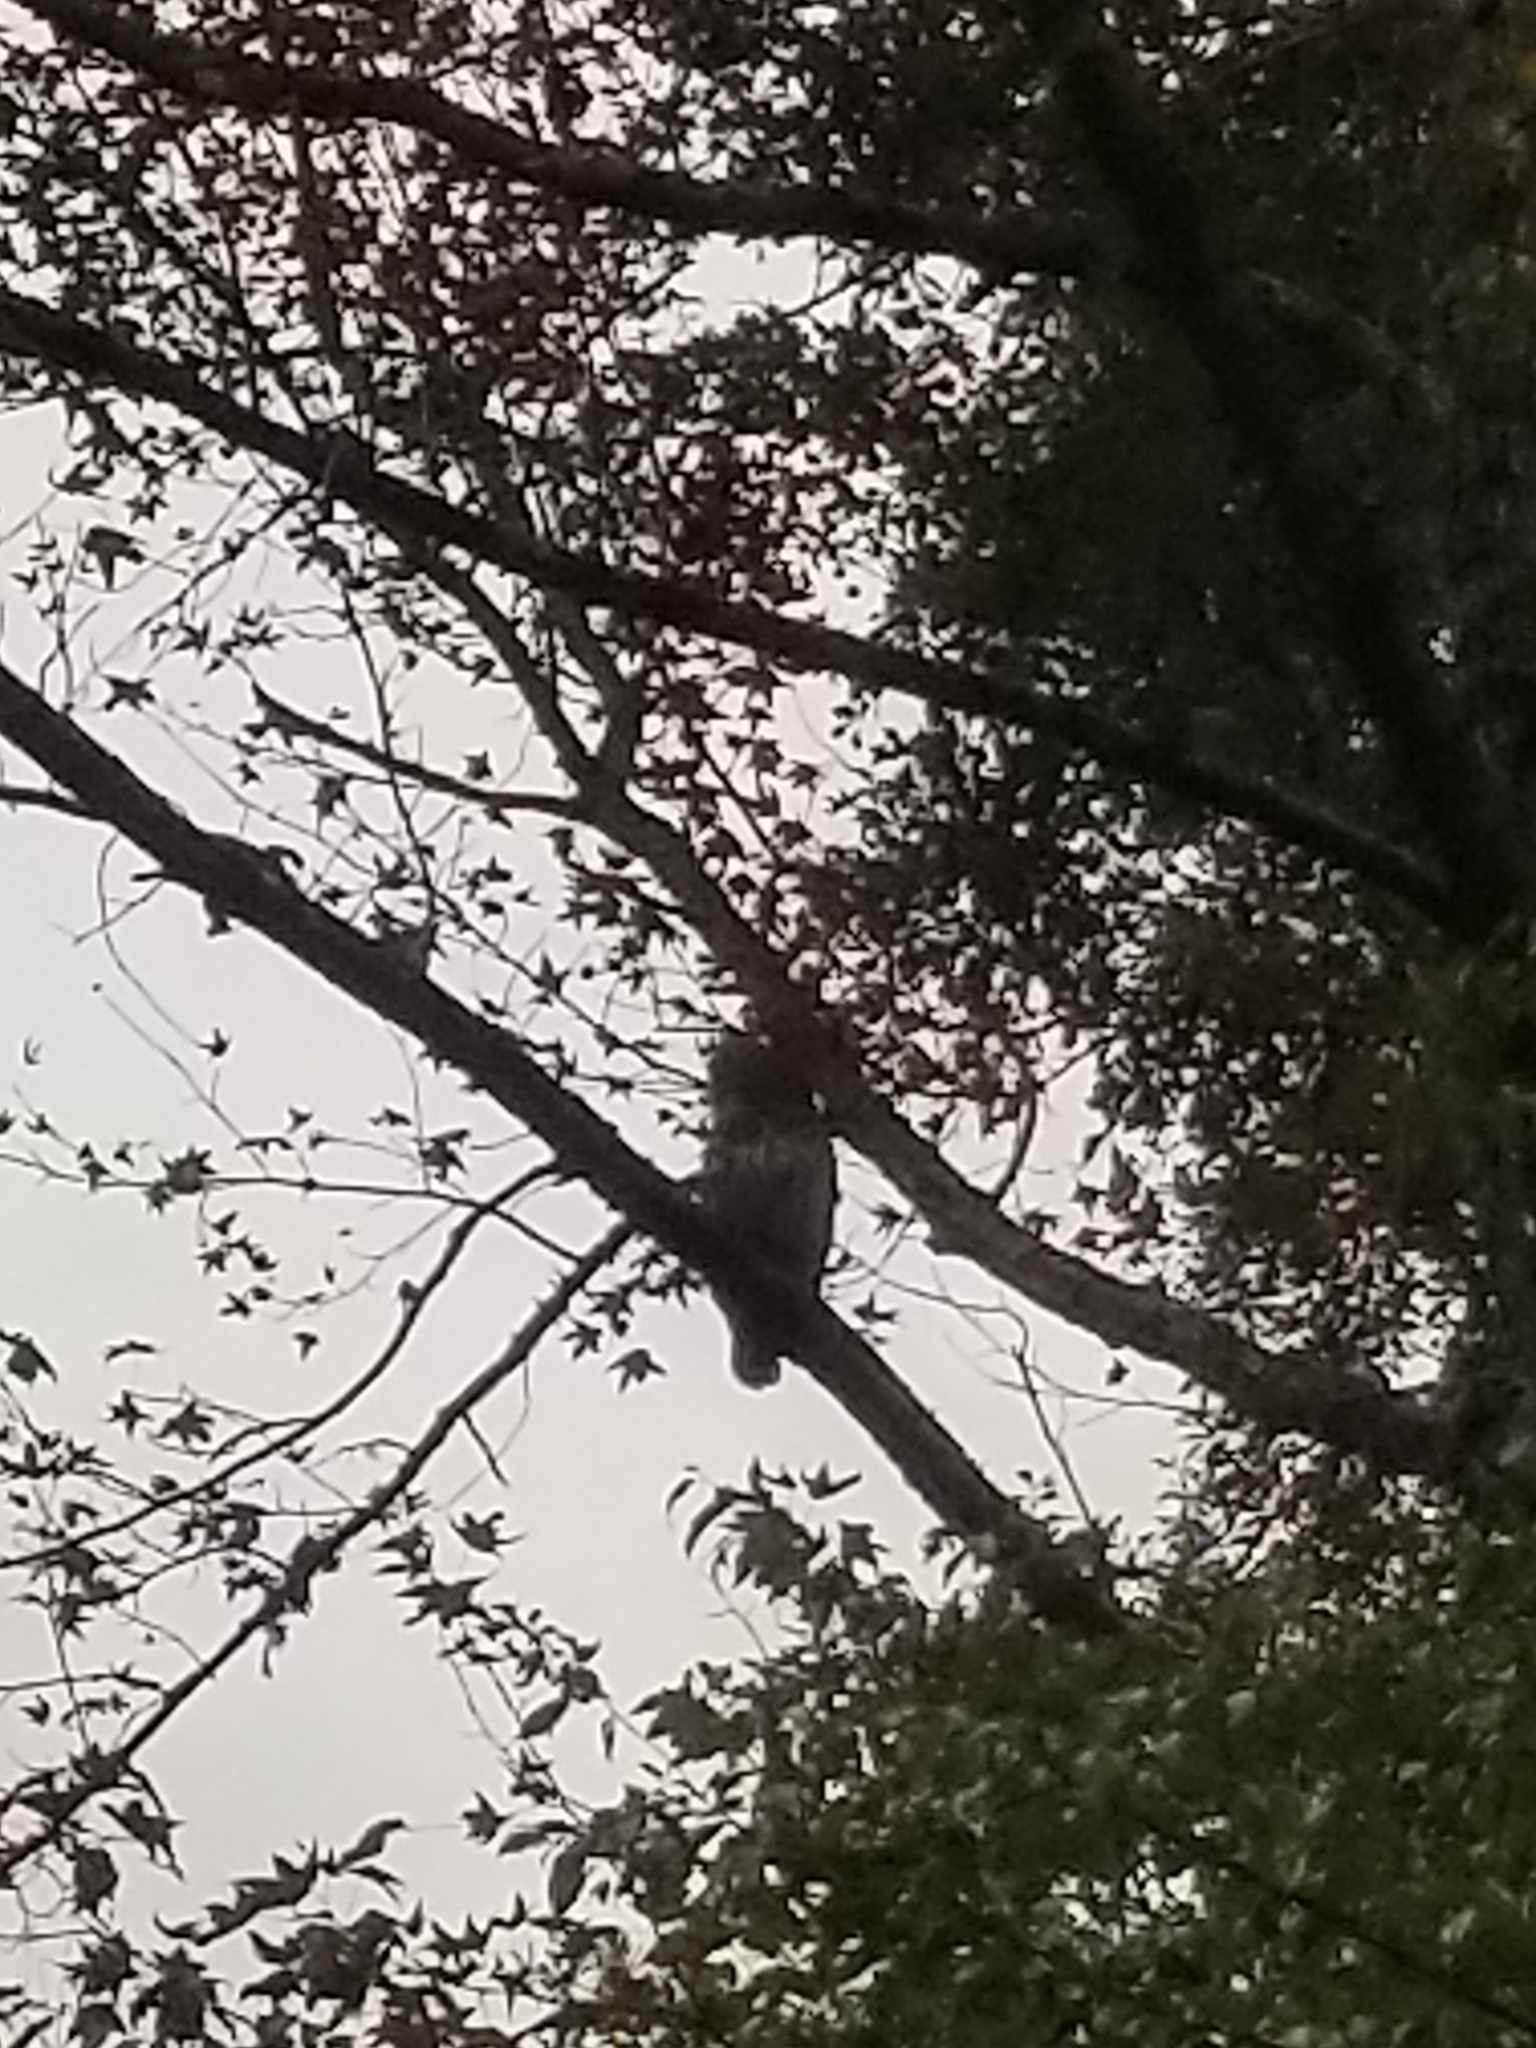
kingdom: Animalia
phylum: Chordata
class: Aves
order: Strigiformes
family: Strigidae
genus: Strix
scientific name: Strix varia
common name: Barred owl
